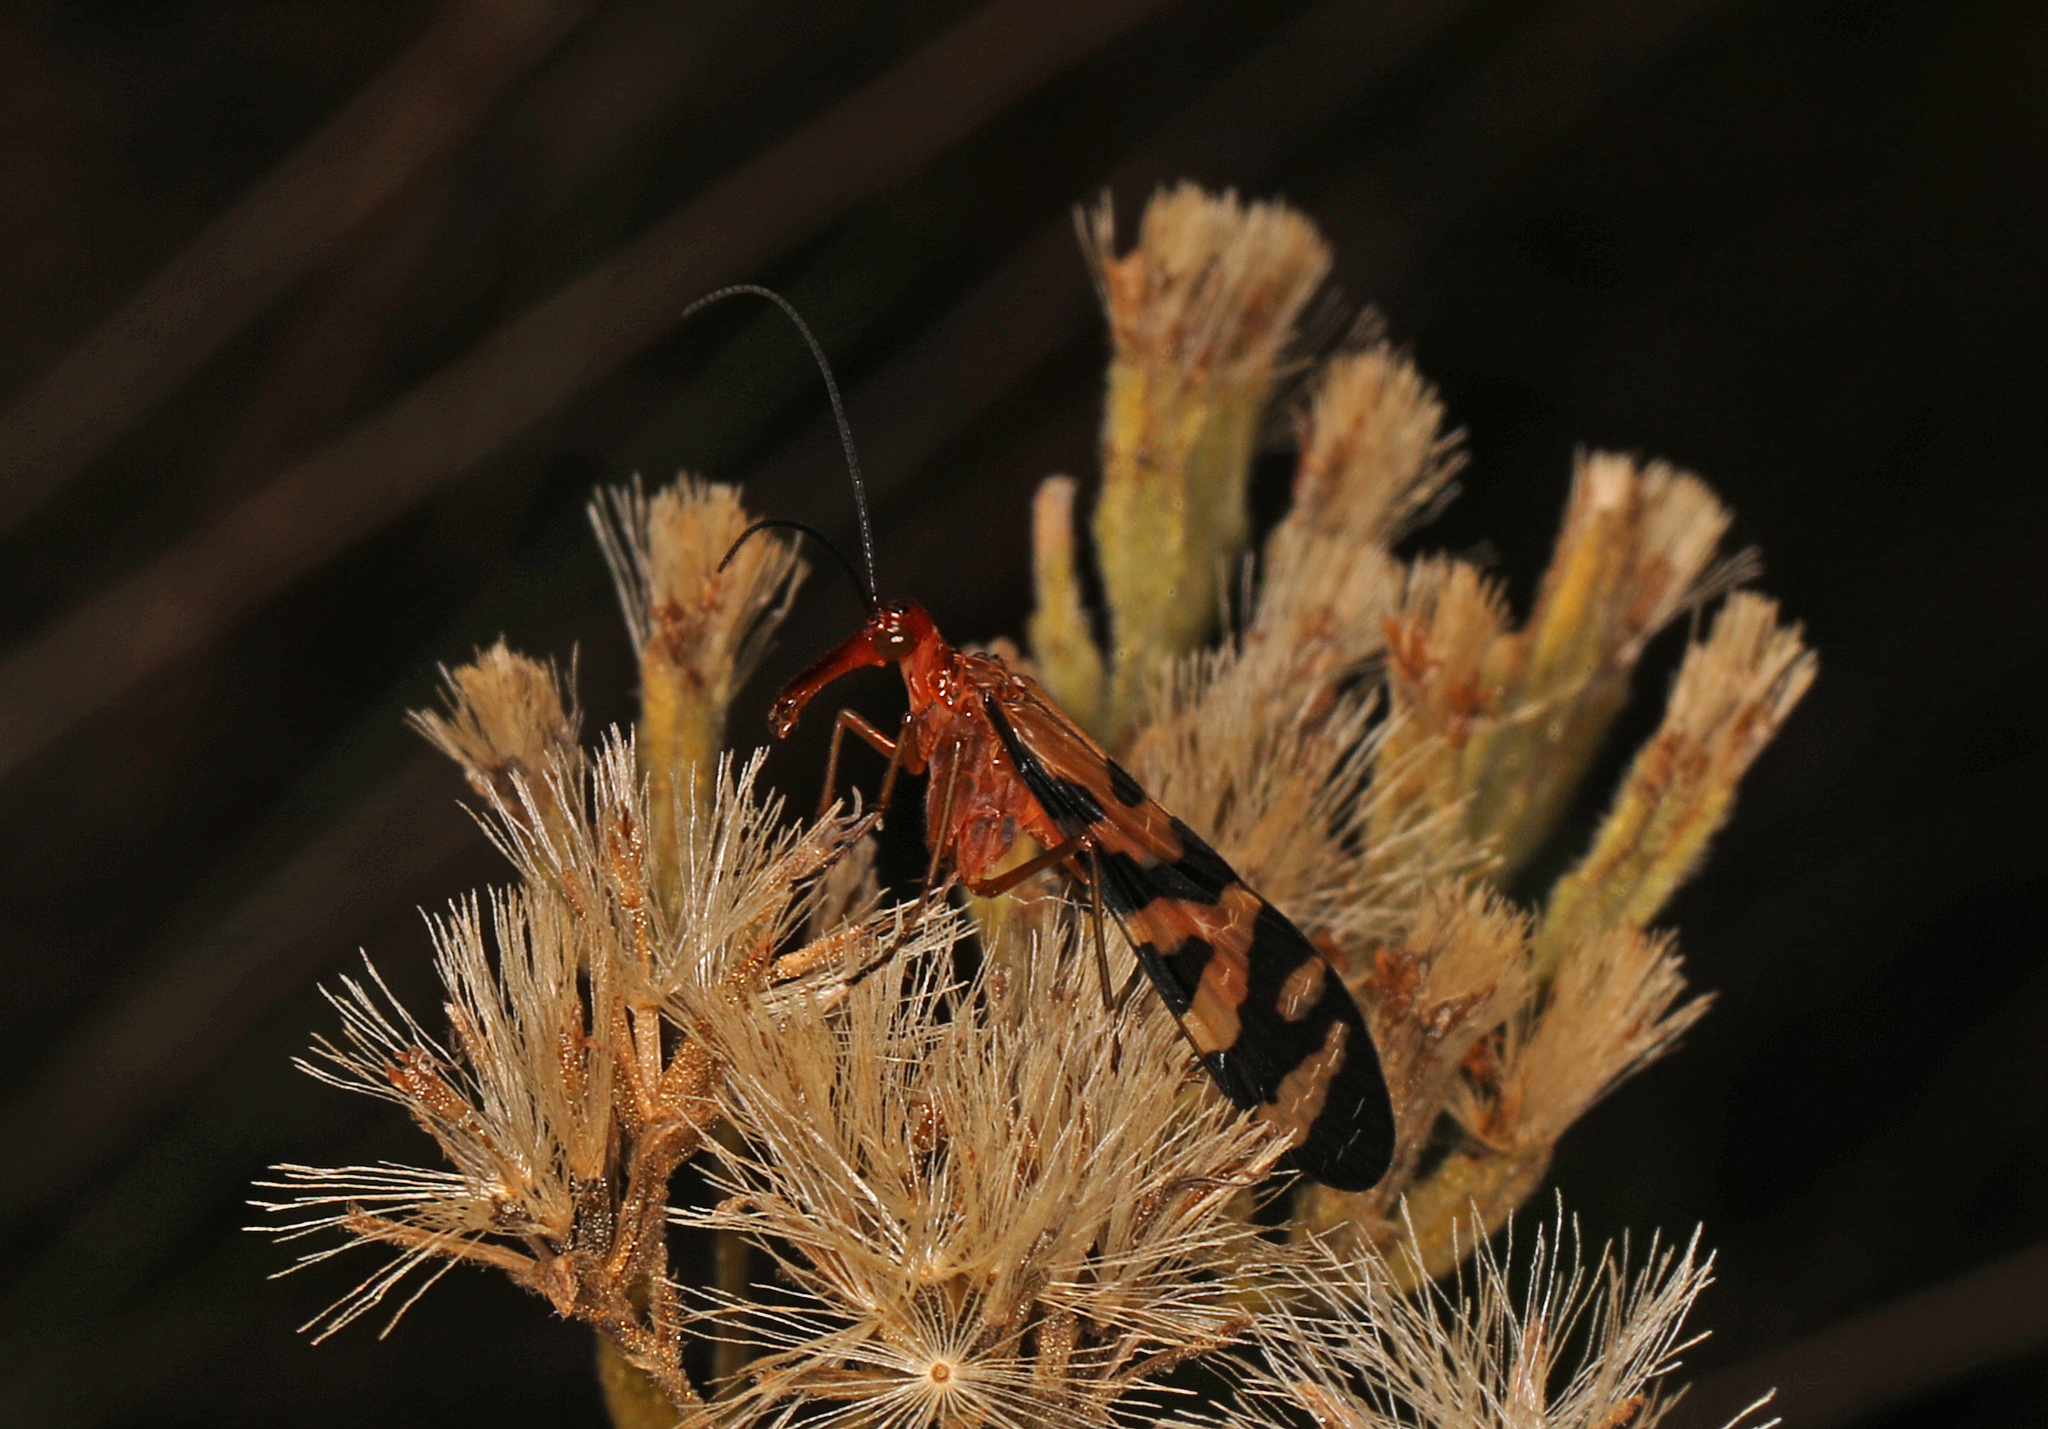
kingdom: Animalia
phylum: Arthropoda
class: Insecta
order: Mecoptera
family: Panorpidae
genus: Panorpa
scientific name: Panorpa rufa
